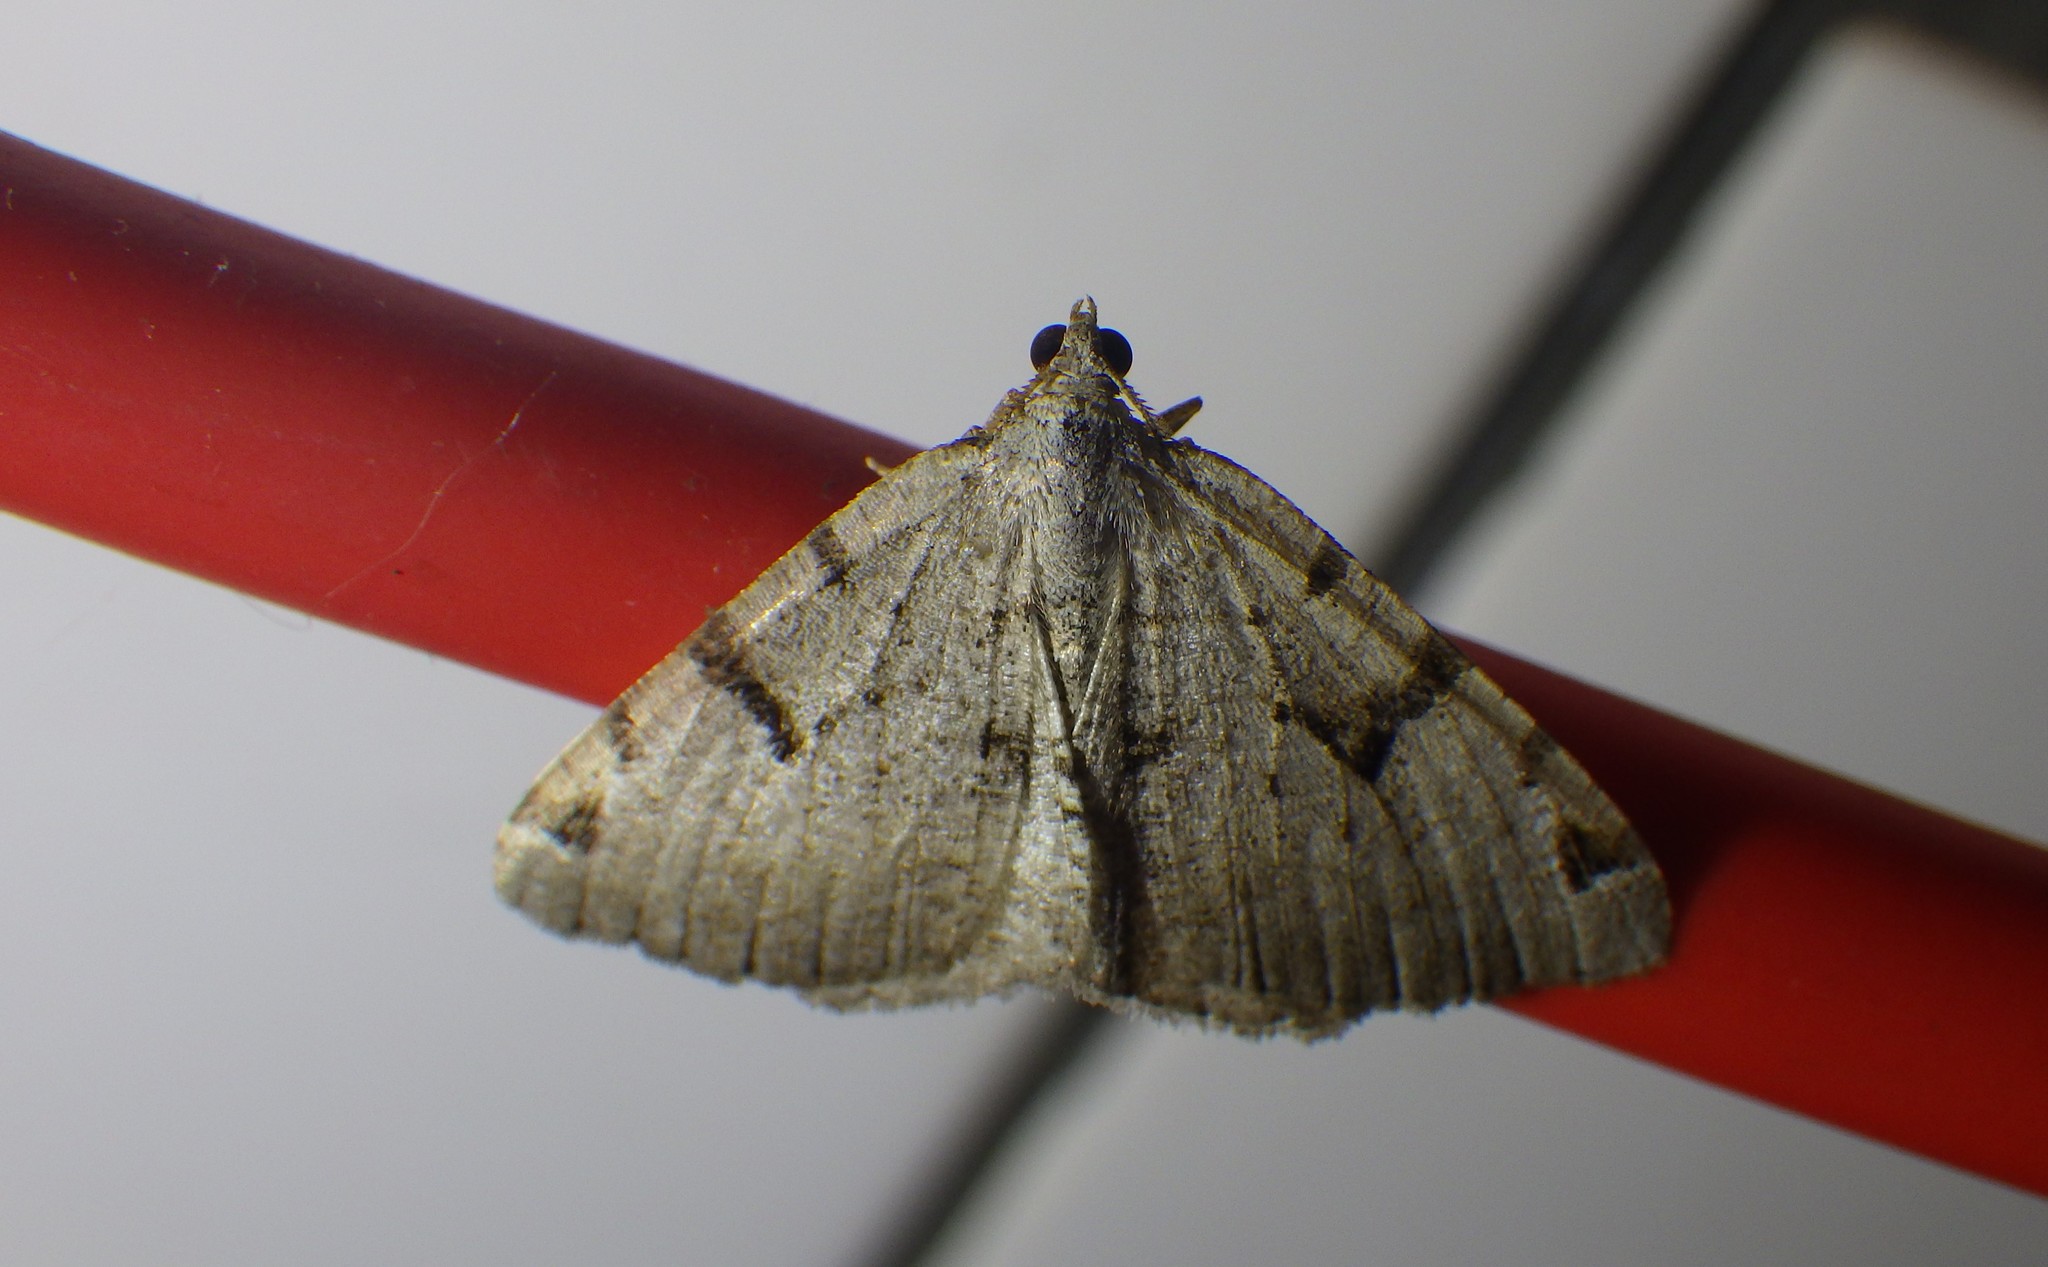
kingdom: Animalia
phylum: Arthropoda
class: Insecta
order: Lepidoptera
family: Geometridae
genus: Macaria
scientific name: Macaria wauaria
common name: V-moth
